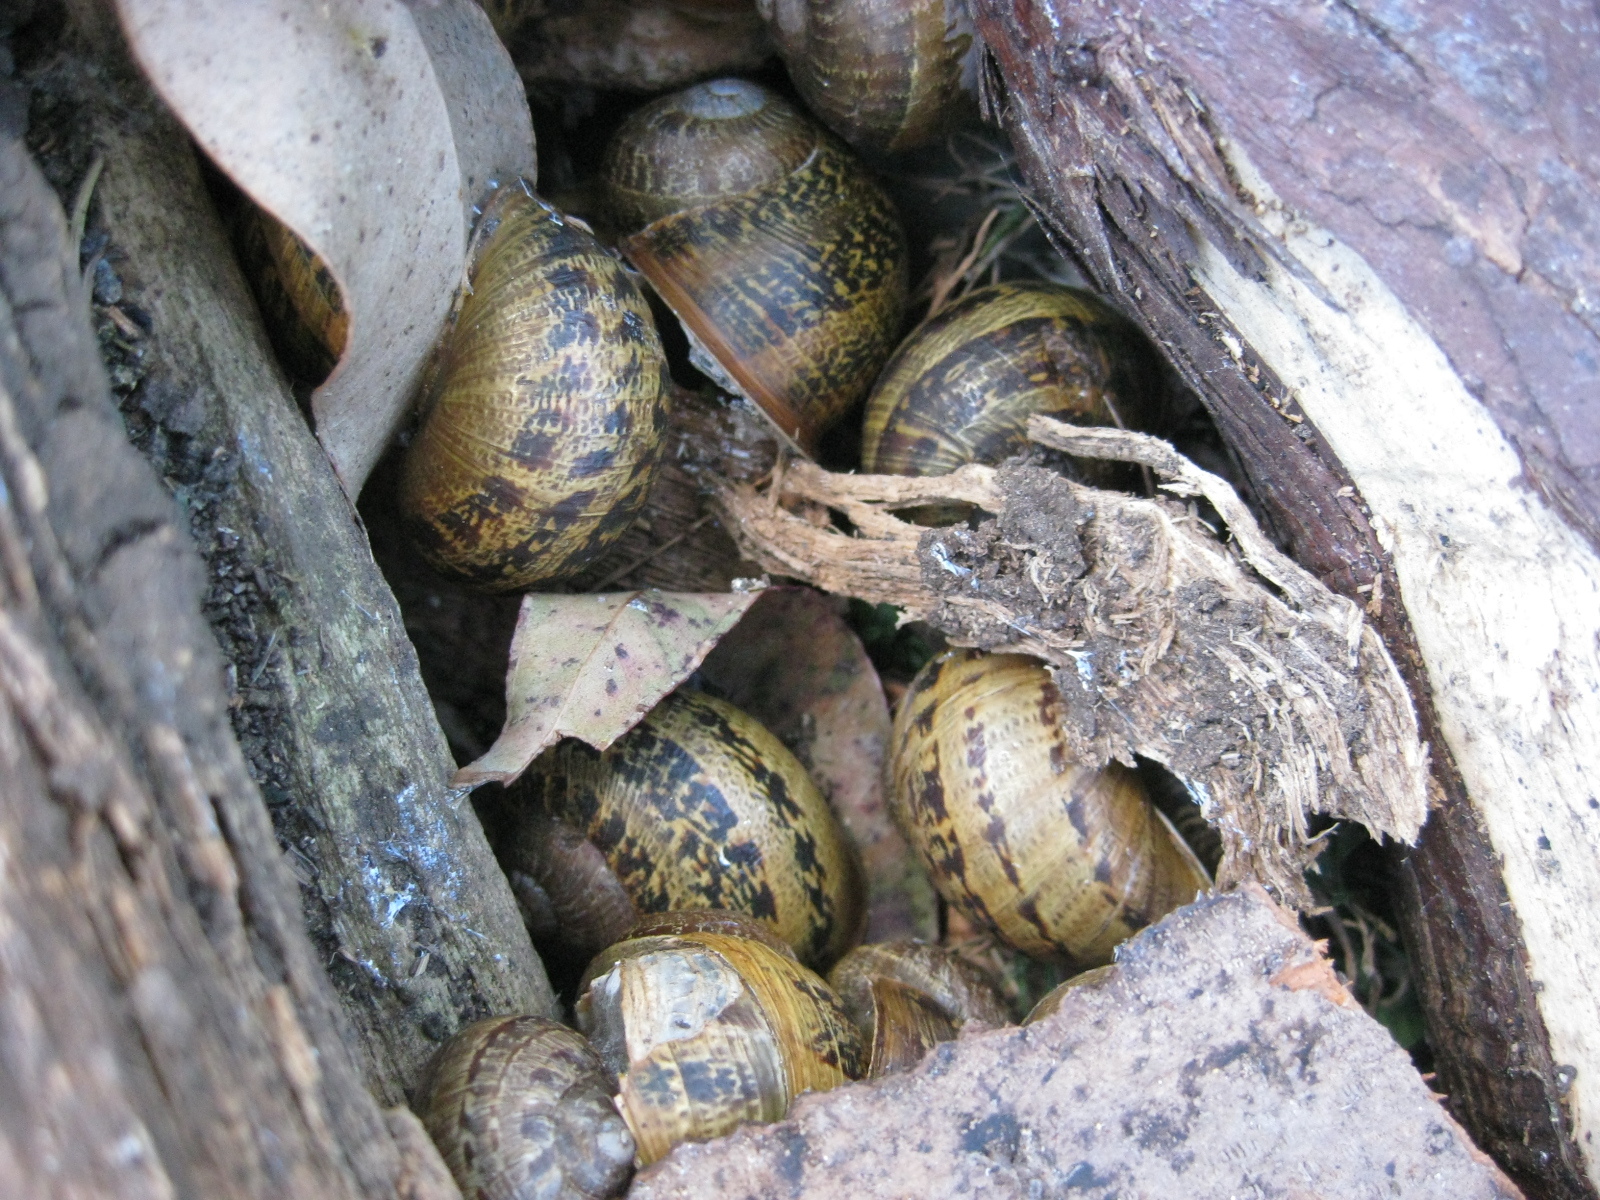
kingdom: Animalia
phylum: Mollusca
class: Gastropoda
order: Stylommatophora
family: Helicidae
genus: Cornu
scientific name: Cornu aspersum
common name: Brown garden snail
